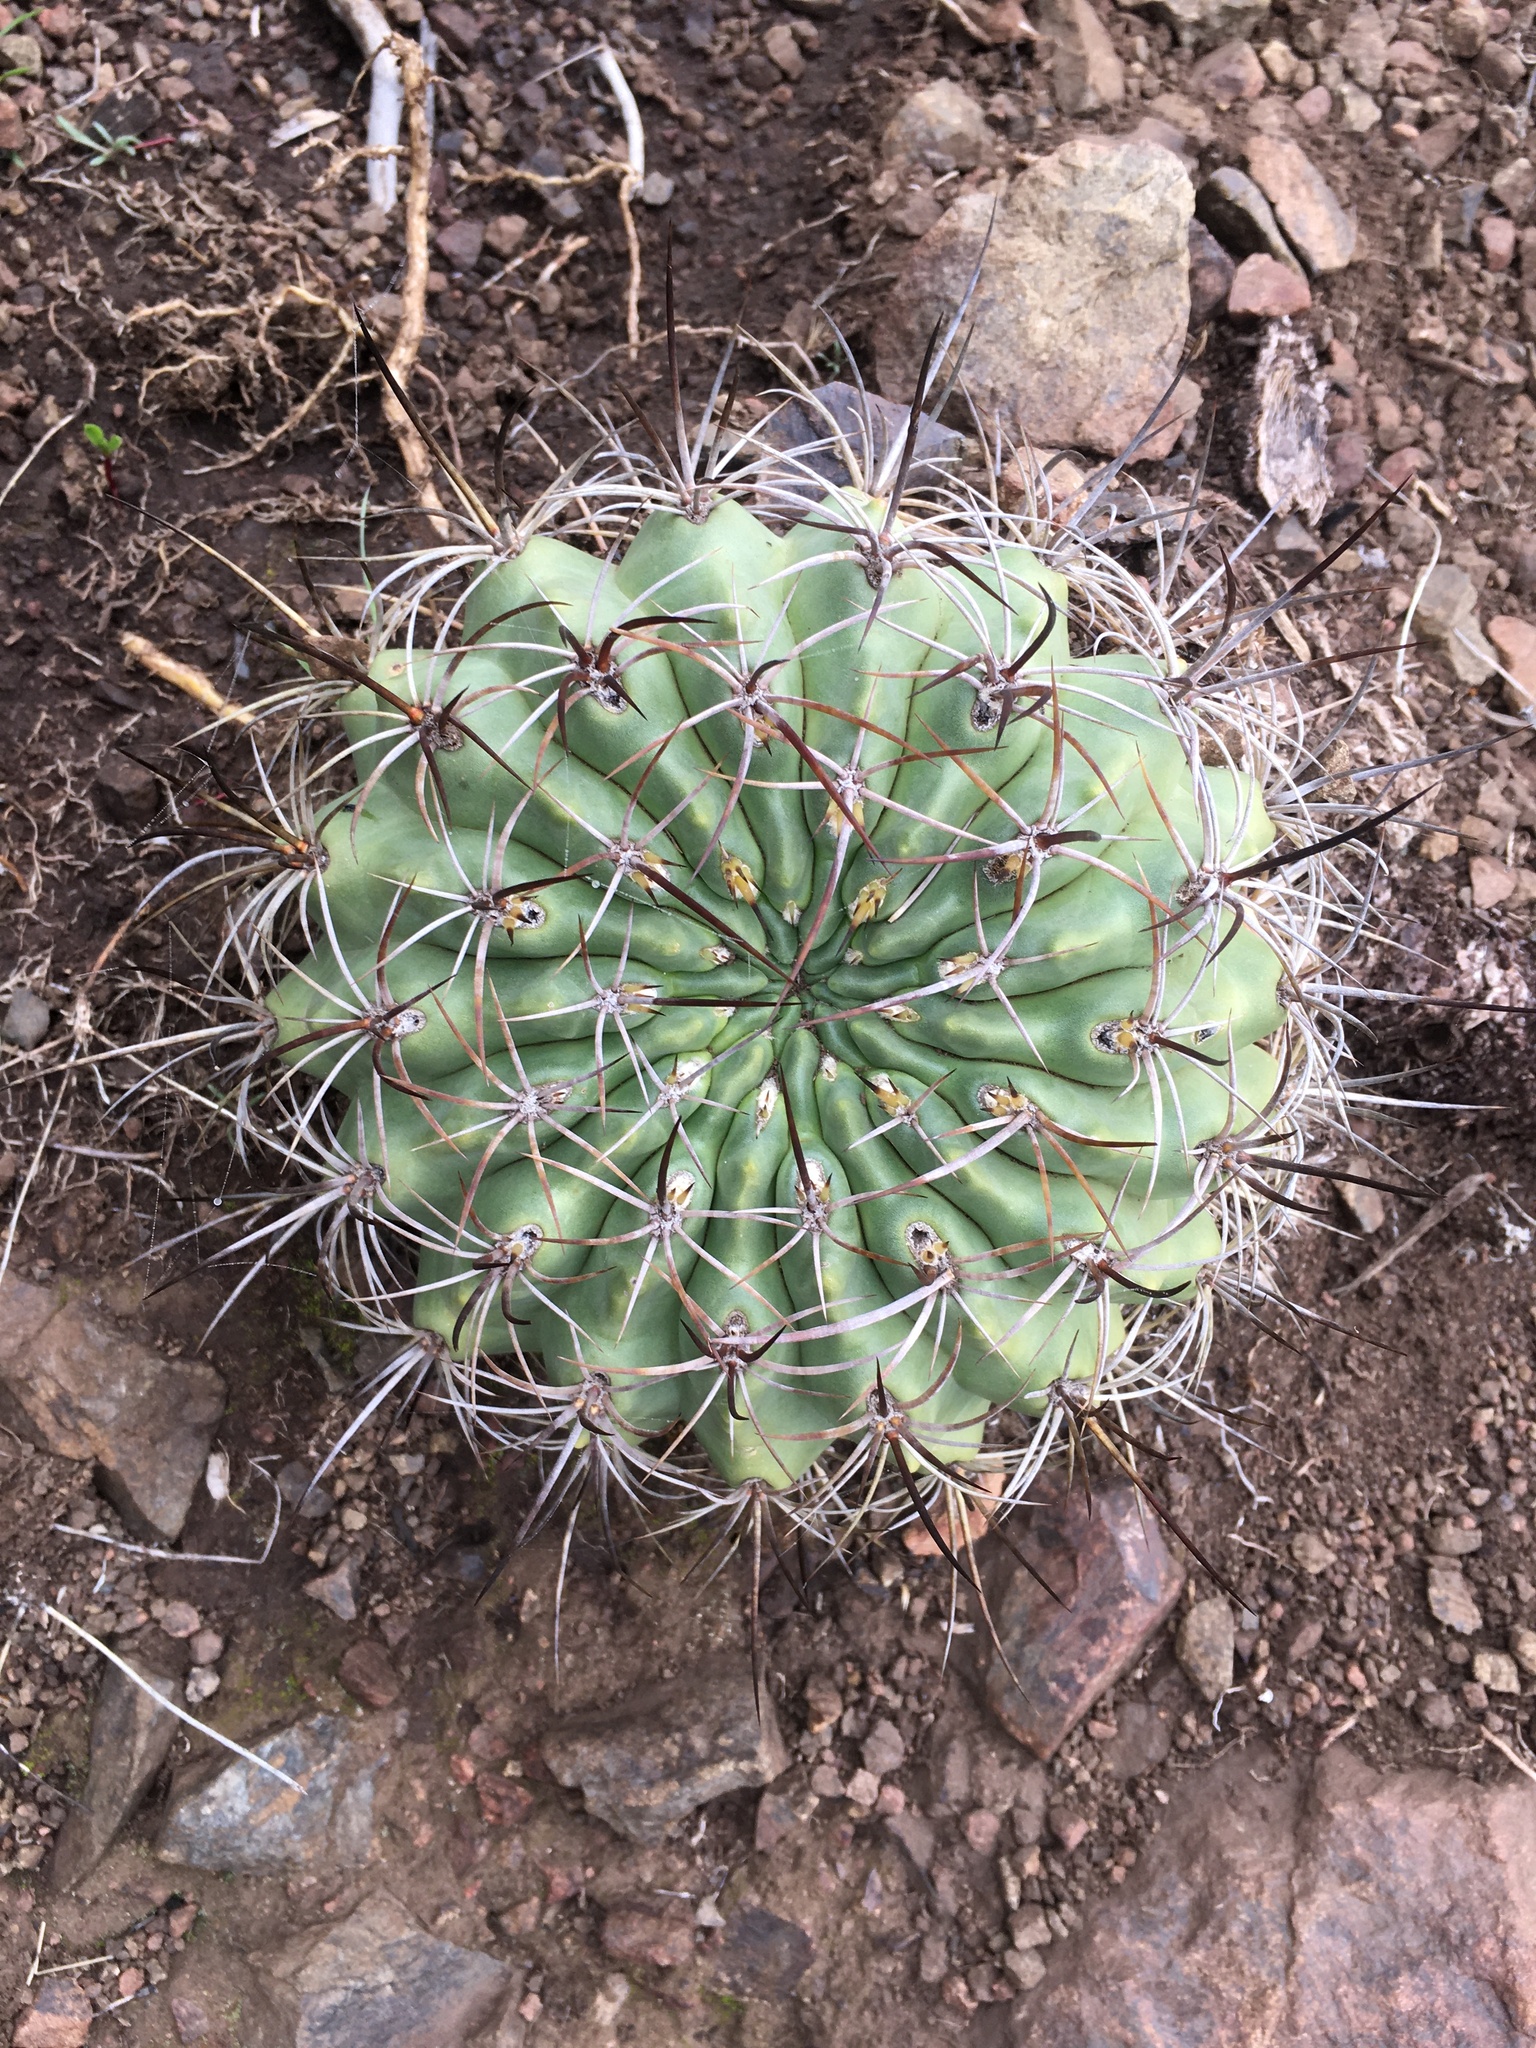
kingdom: Plantae
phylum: Tracheophyta
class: Magnoliopsida
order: Caryophyllales
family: Cactaceae
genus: Eriosyce
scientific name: Eriosyce curvispina
